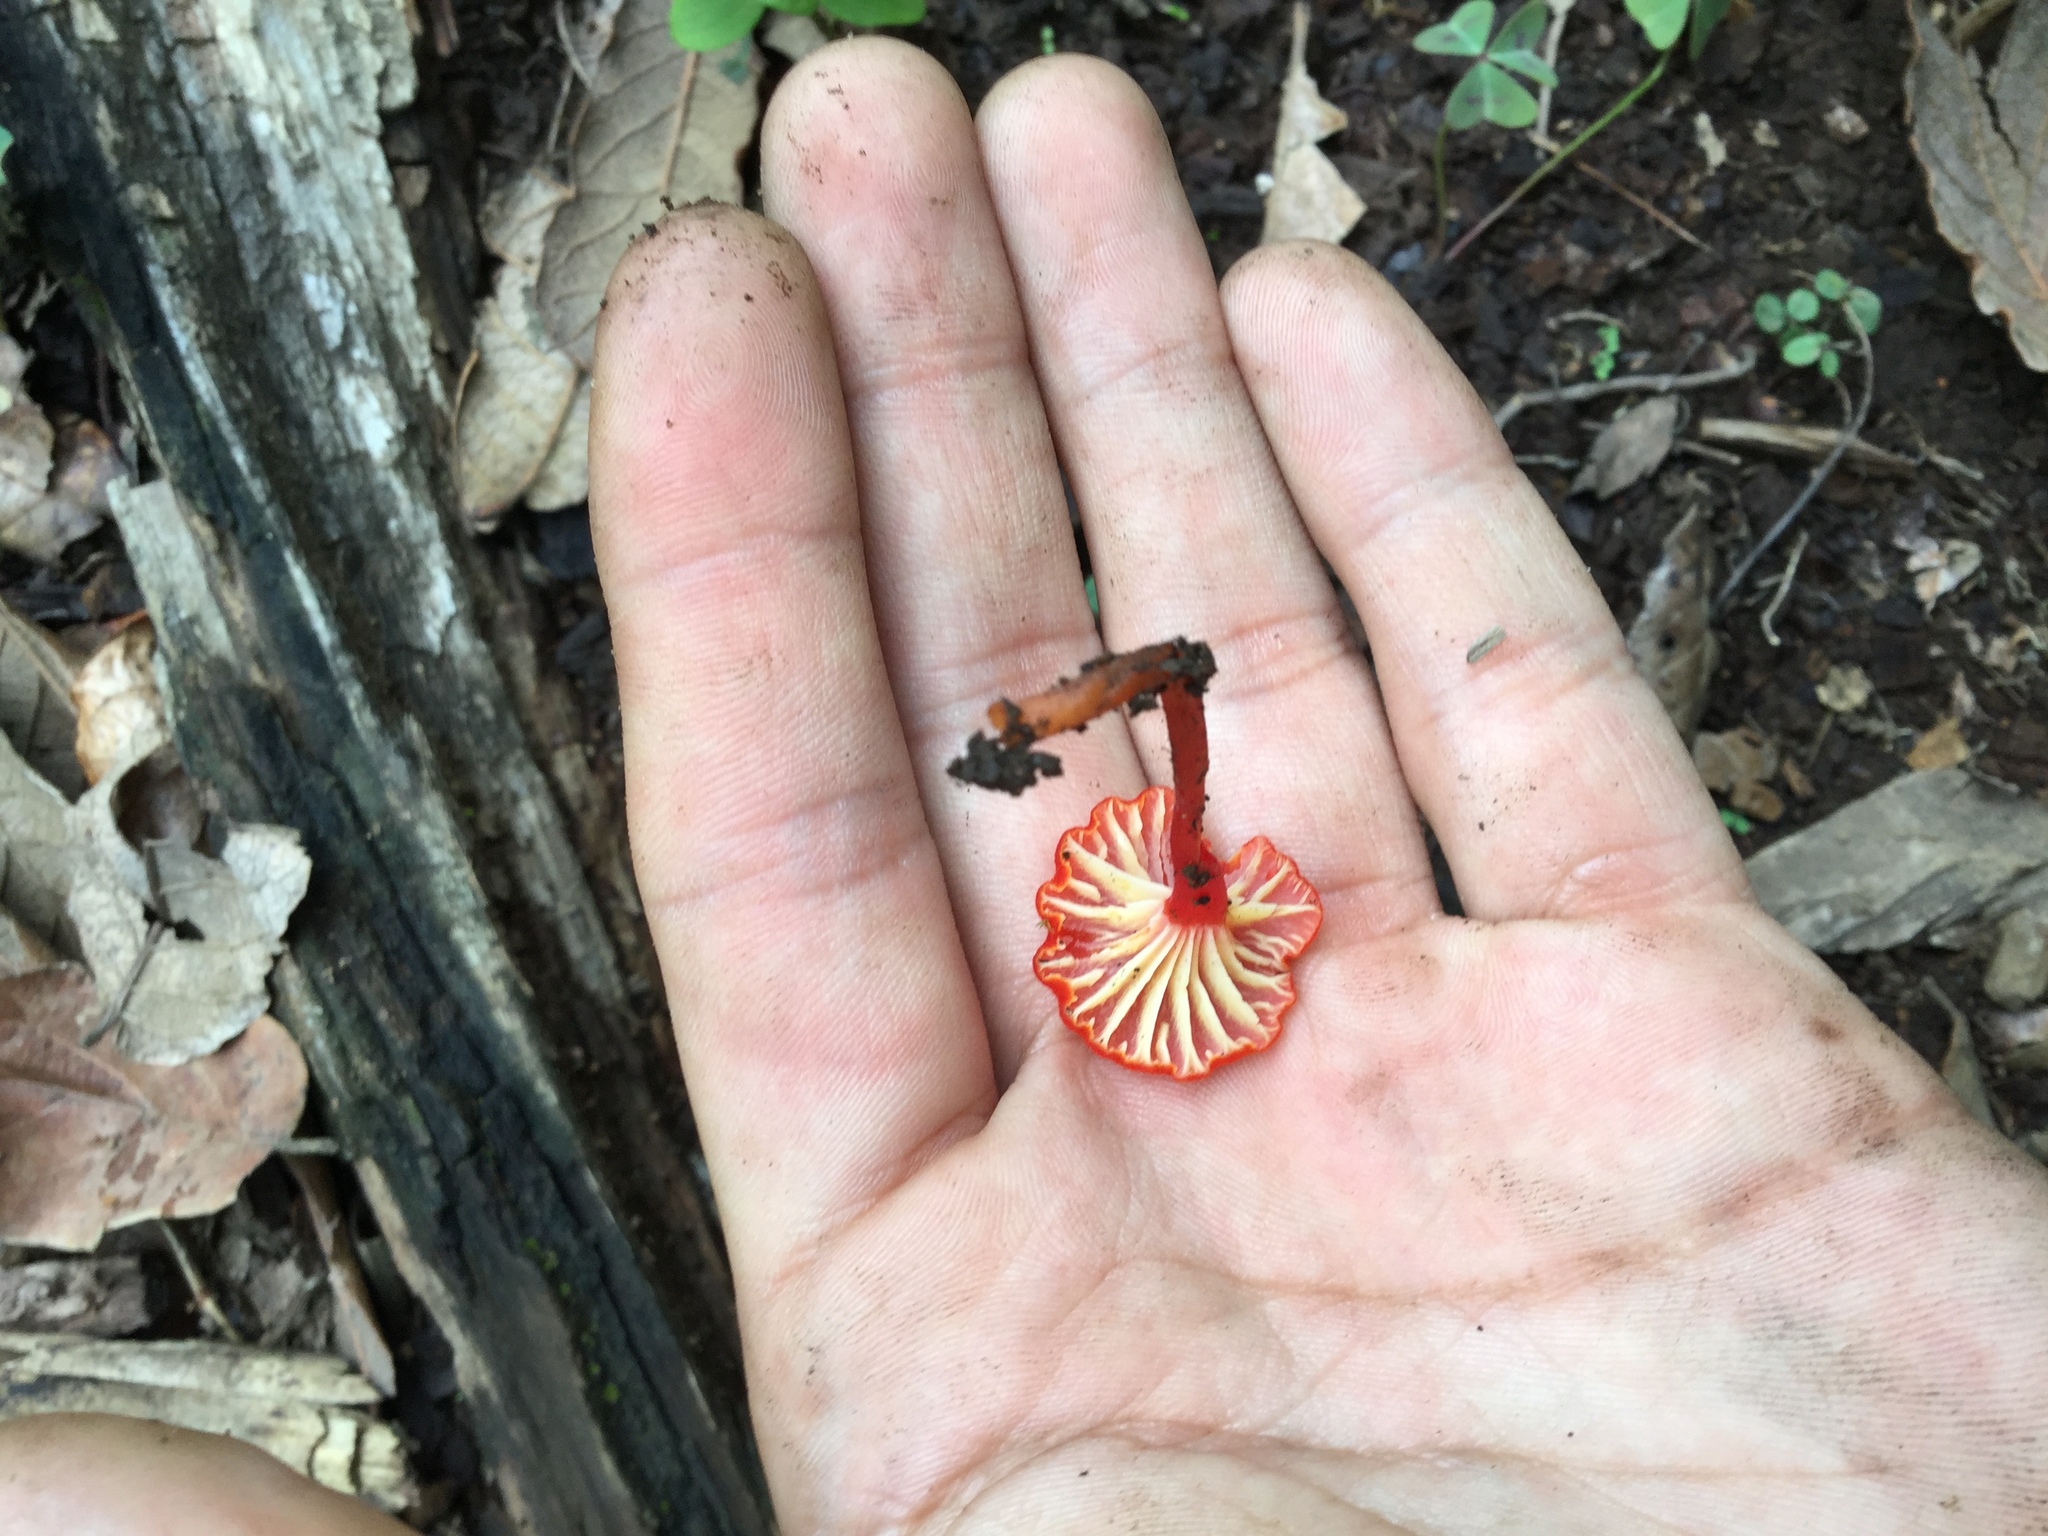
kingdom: Fungi
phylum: Basidiomycota
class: Agaricomycetes
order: Agaricales
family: Hygrophoraceae
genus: Hygrocybe
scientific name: Hygrocybe cantharellus
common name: Goblet waxcap
